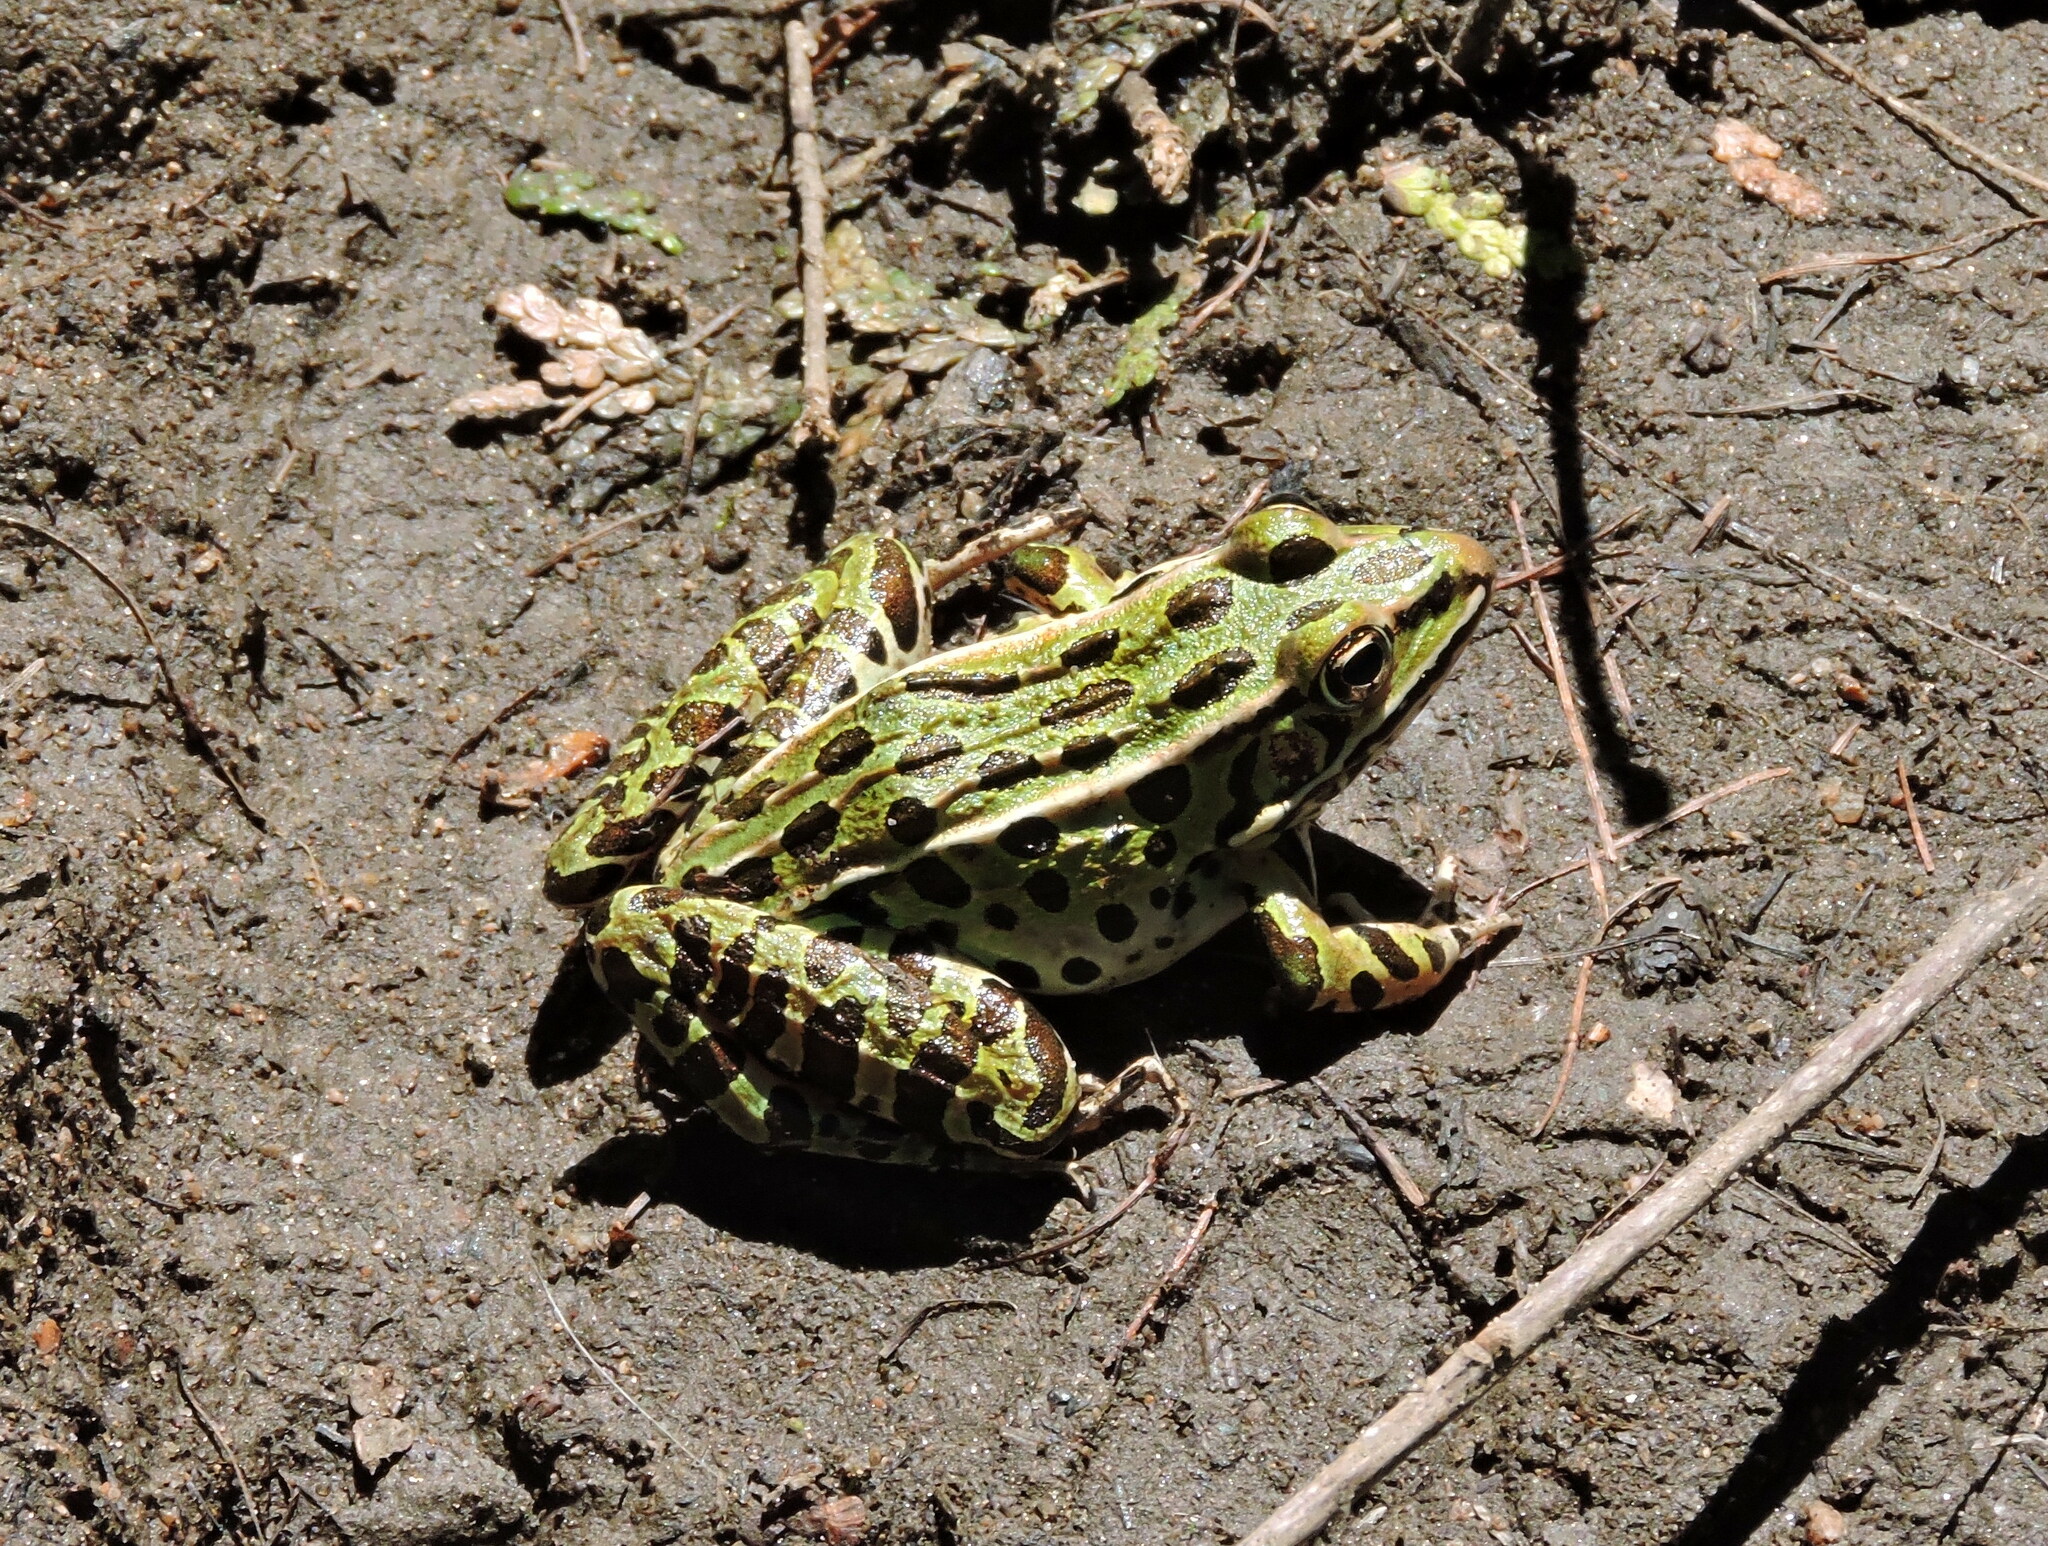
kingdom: Animalia
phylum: Chordata
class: Amphibia
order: Anura
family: Ranidae
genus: Lithobates
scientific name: Lithobates pipiens
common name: Northern leopard frog
